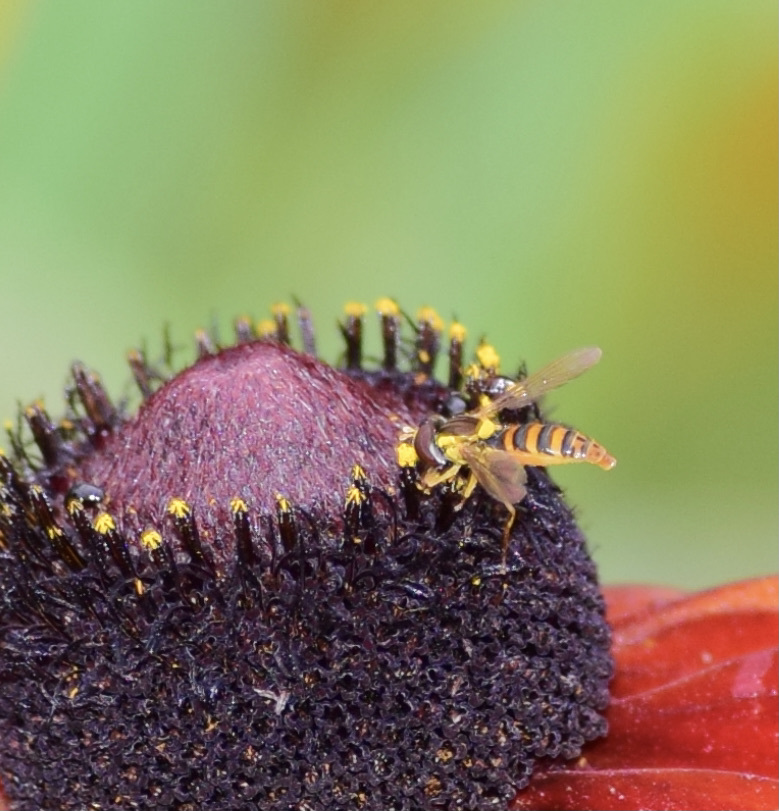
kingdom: Animalia
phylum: Arthropoda
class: Insecta
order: Diptera
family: Syrphidae
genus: Sphaerophoria
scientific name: Sphaerophoria
